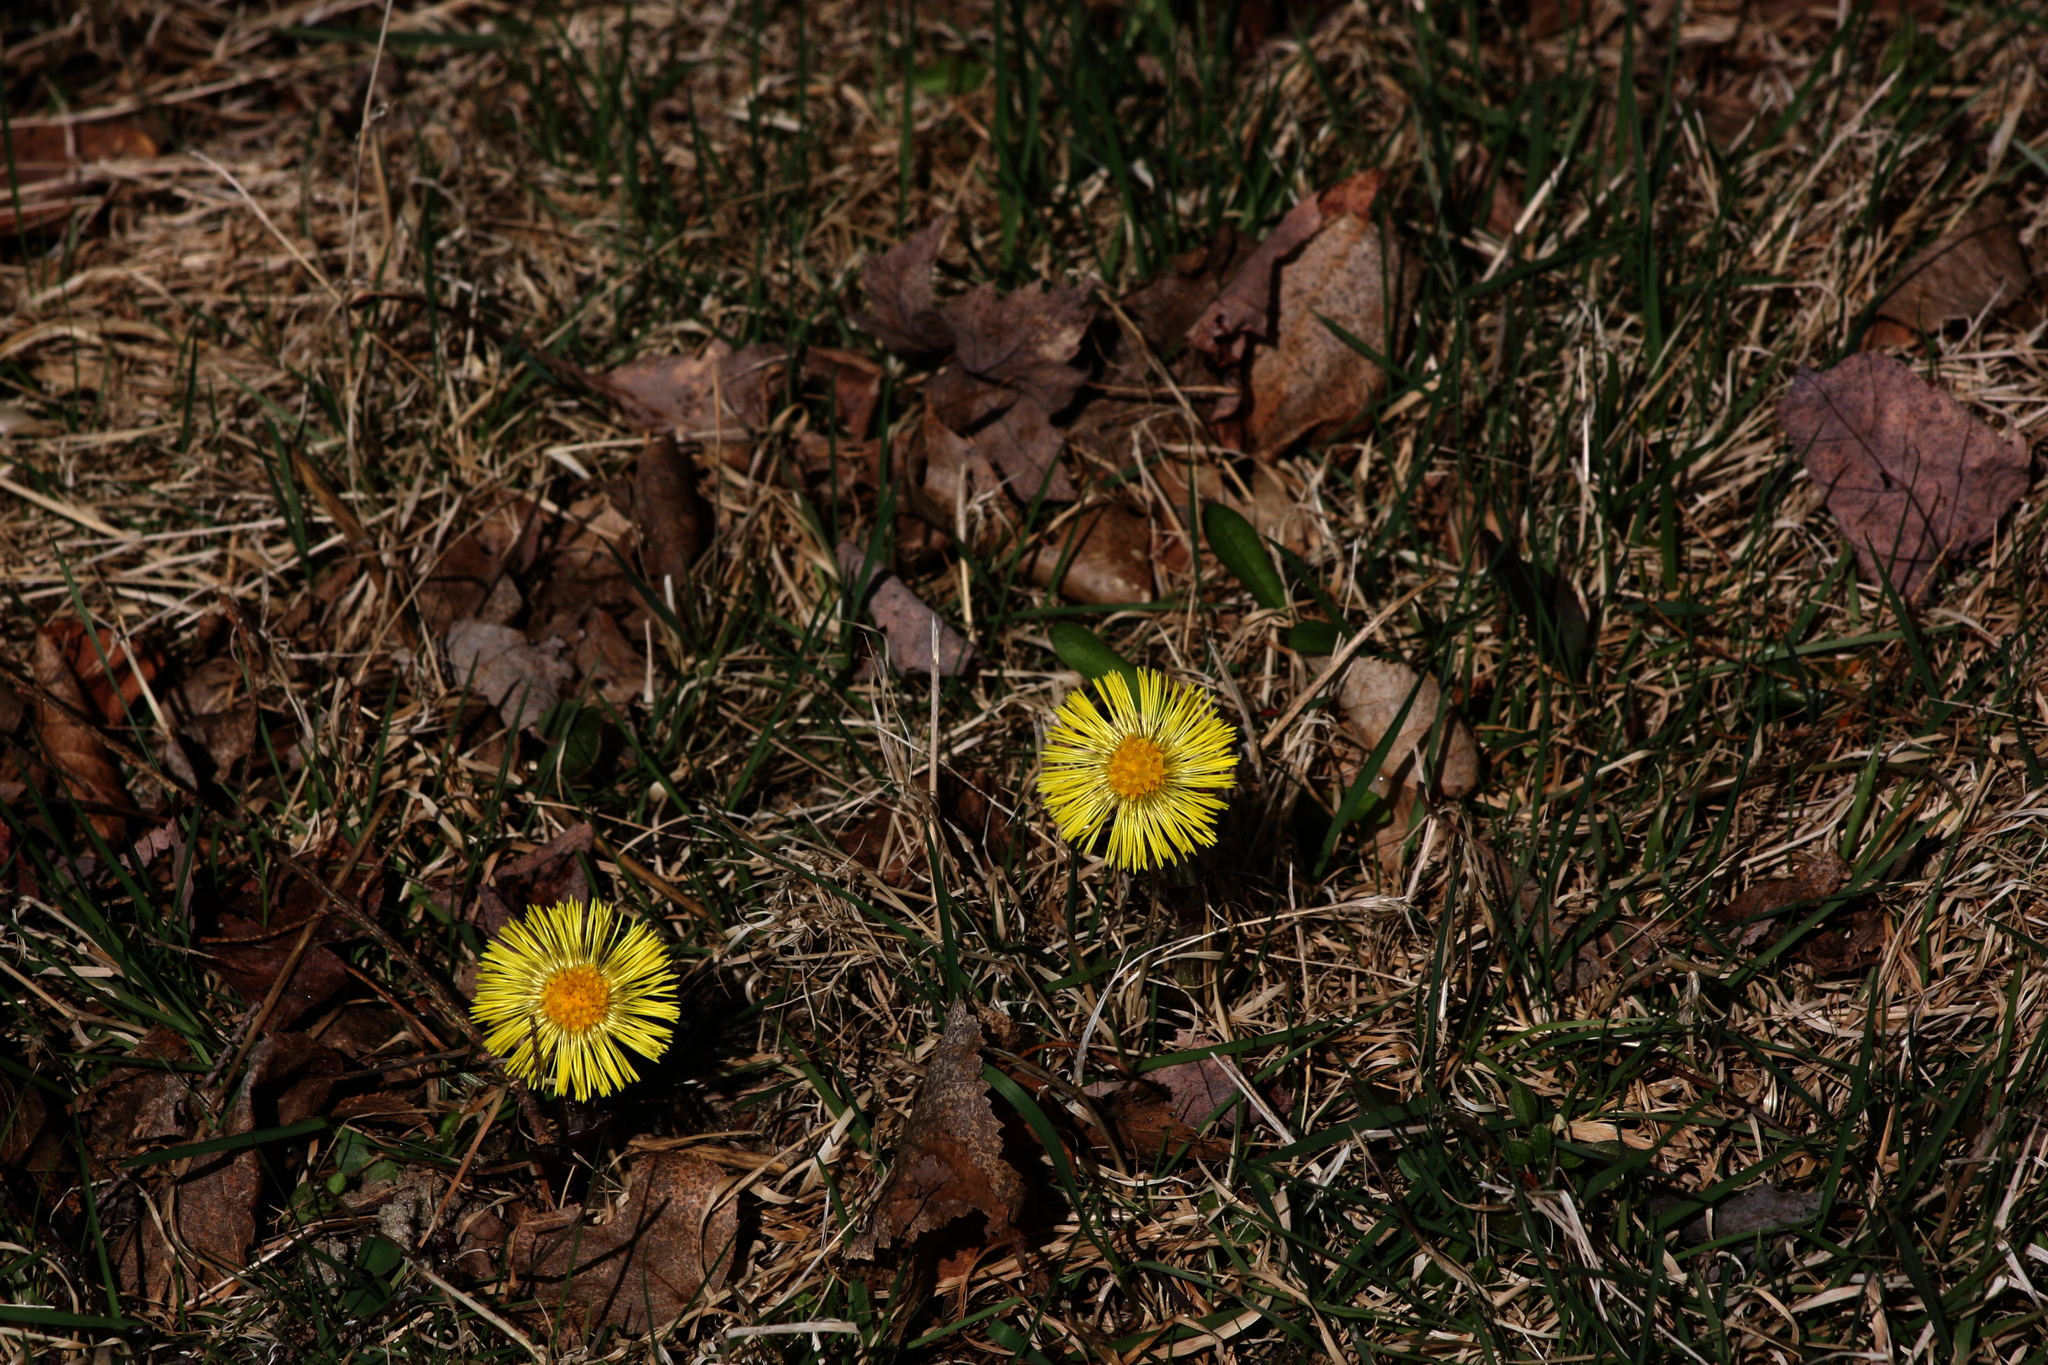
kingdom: Plantae
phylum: Tracheophyta
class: Magnoliopsida
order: Asterales
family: Asteraceae
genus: Tussilago
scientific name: Tussilago farfara
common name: Coltsfoot
